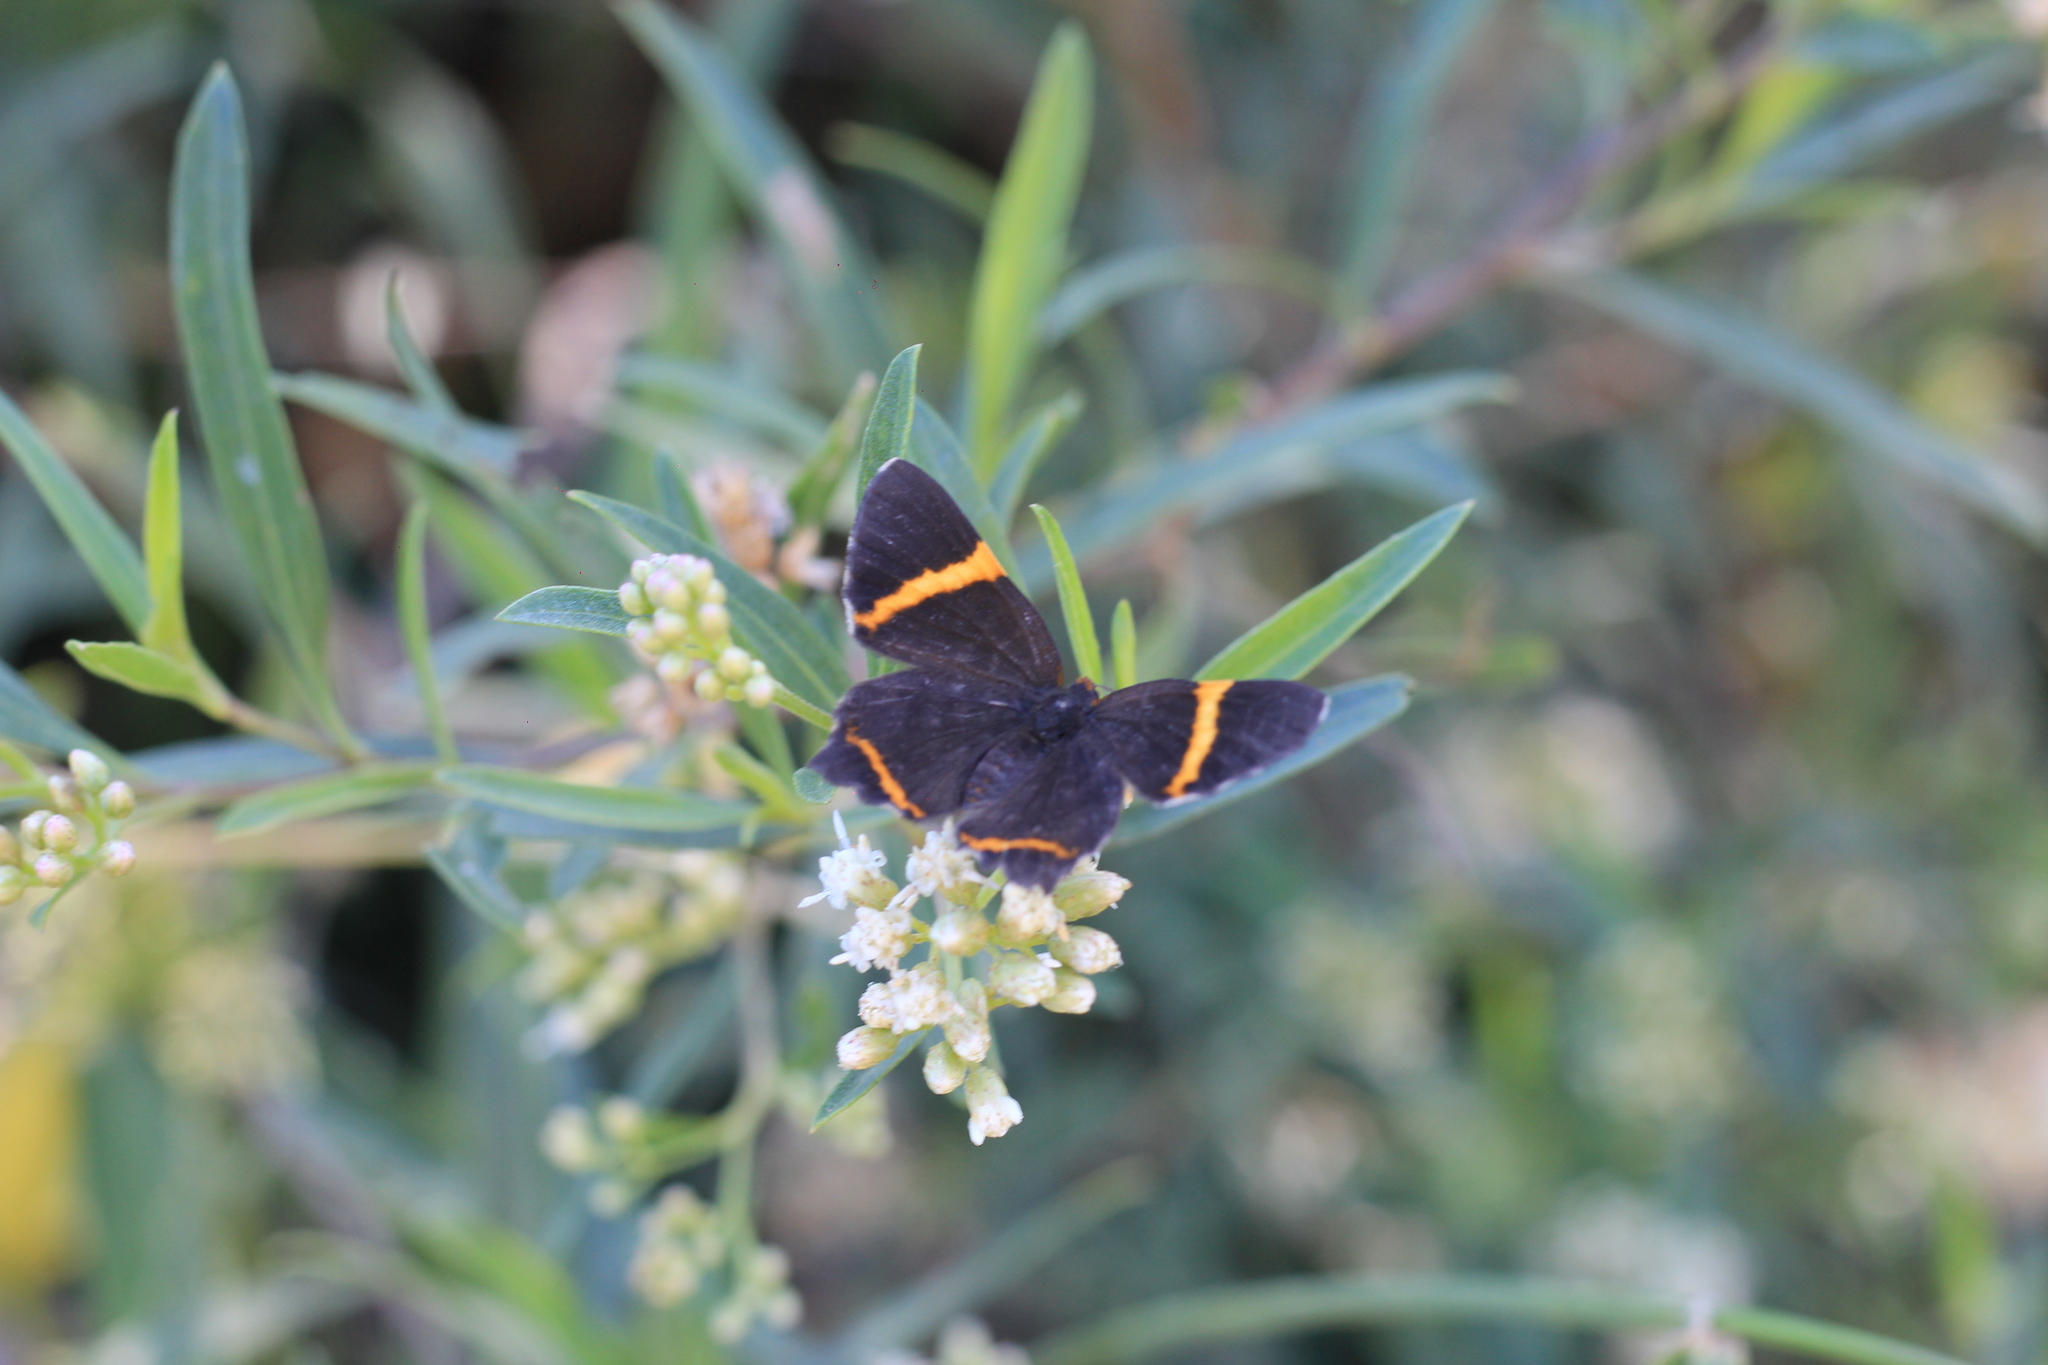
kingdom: Animalia
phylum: Arthropoda
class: Insecta
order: Lepidoptera
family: Riodinidae
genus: Riodina
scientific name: Riodina lysippoides
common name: Little dancer metalmark
